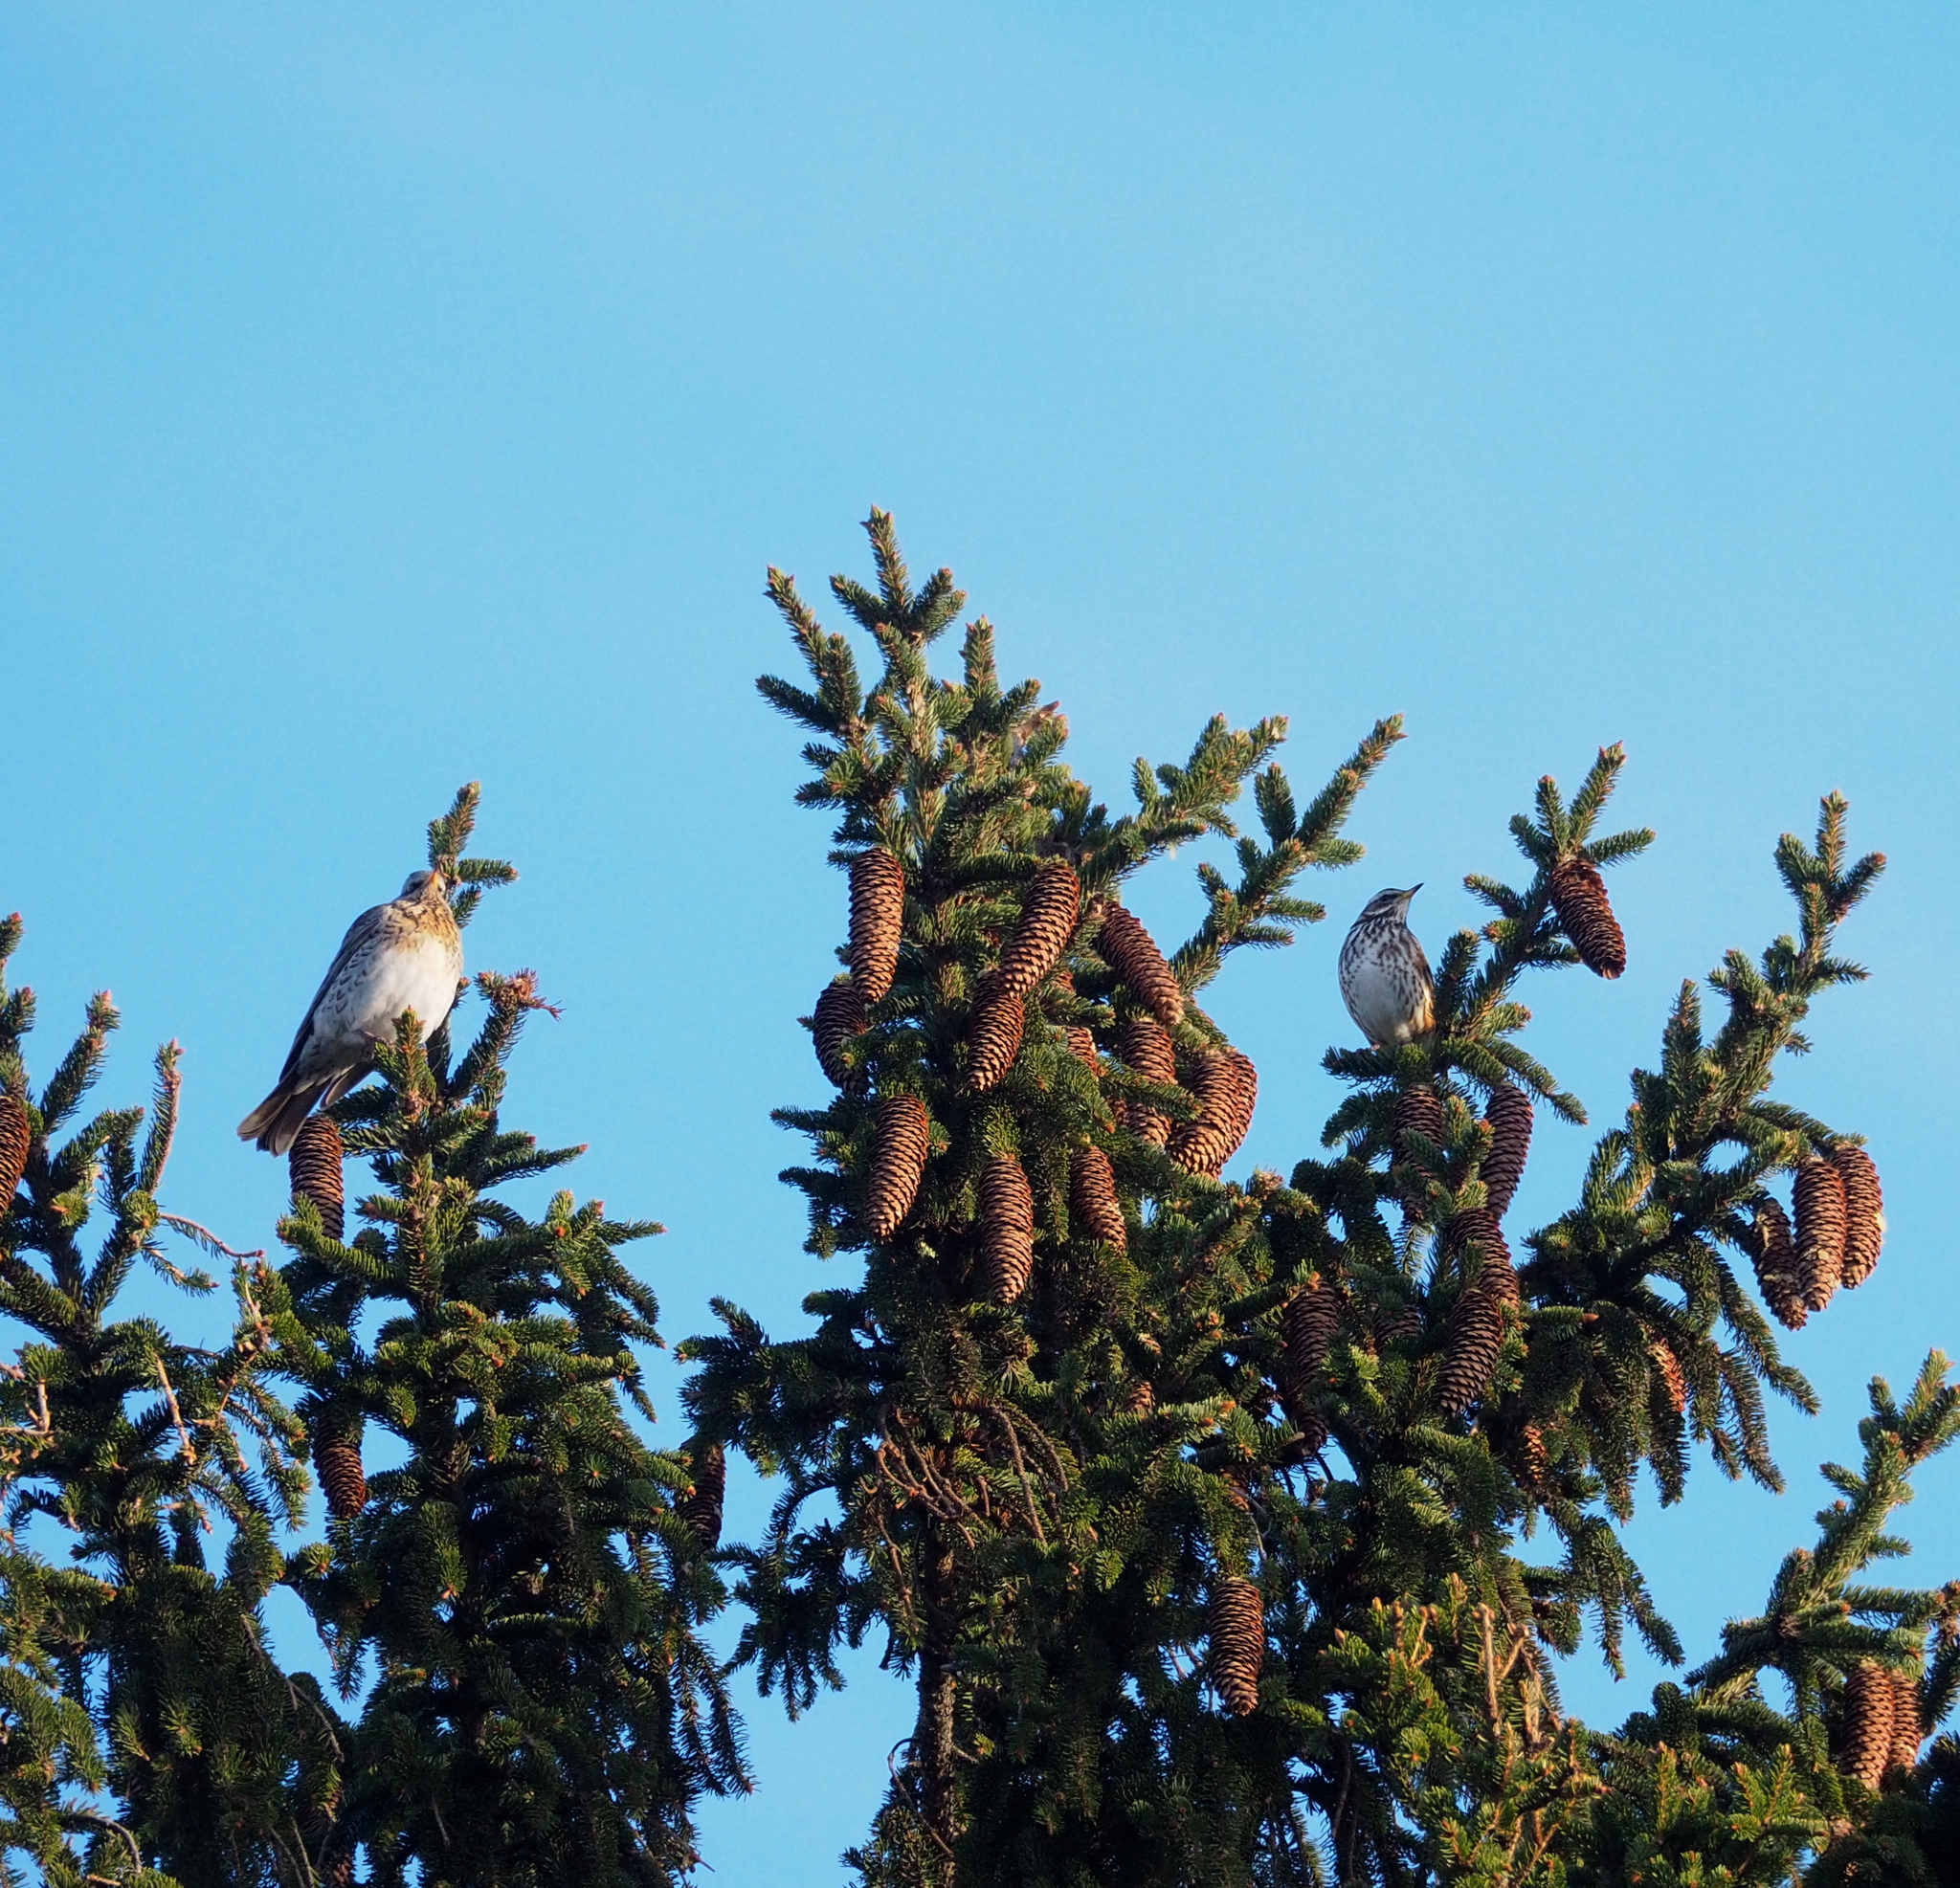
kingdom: Animalia
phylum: Chordata
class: Aves
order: Passeriformes
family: Turdidae
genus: Turdus
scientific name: Turdus iliacus
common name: Redwing
